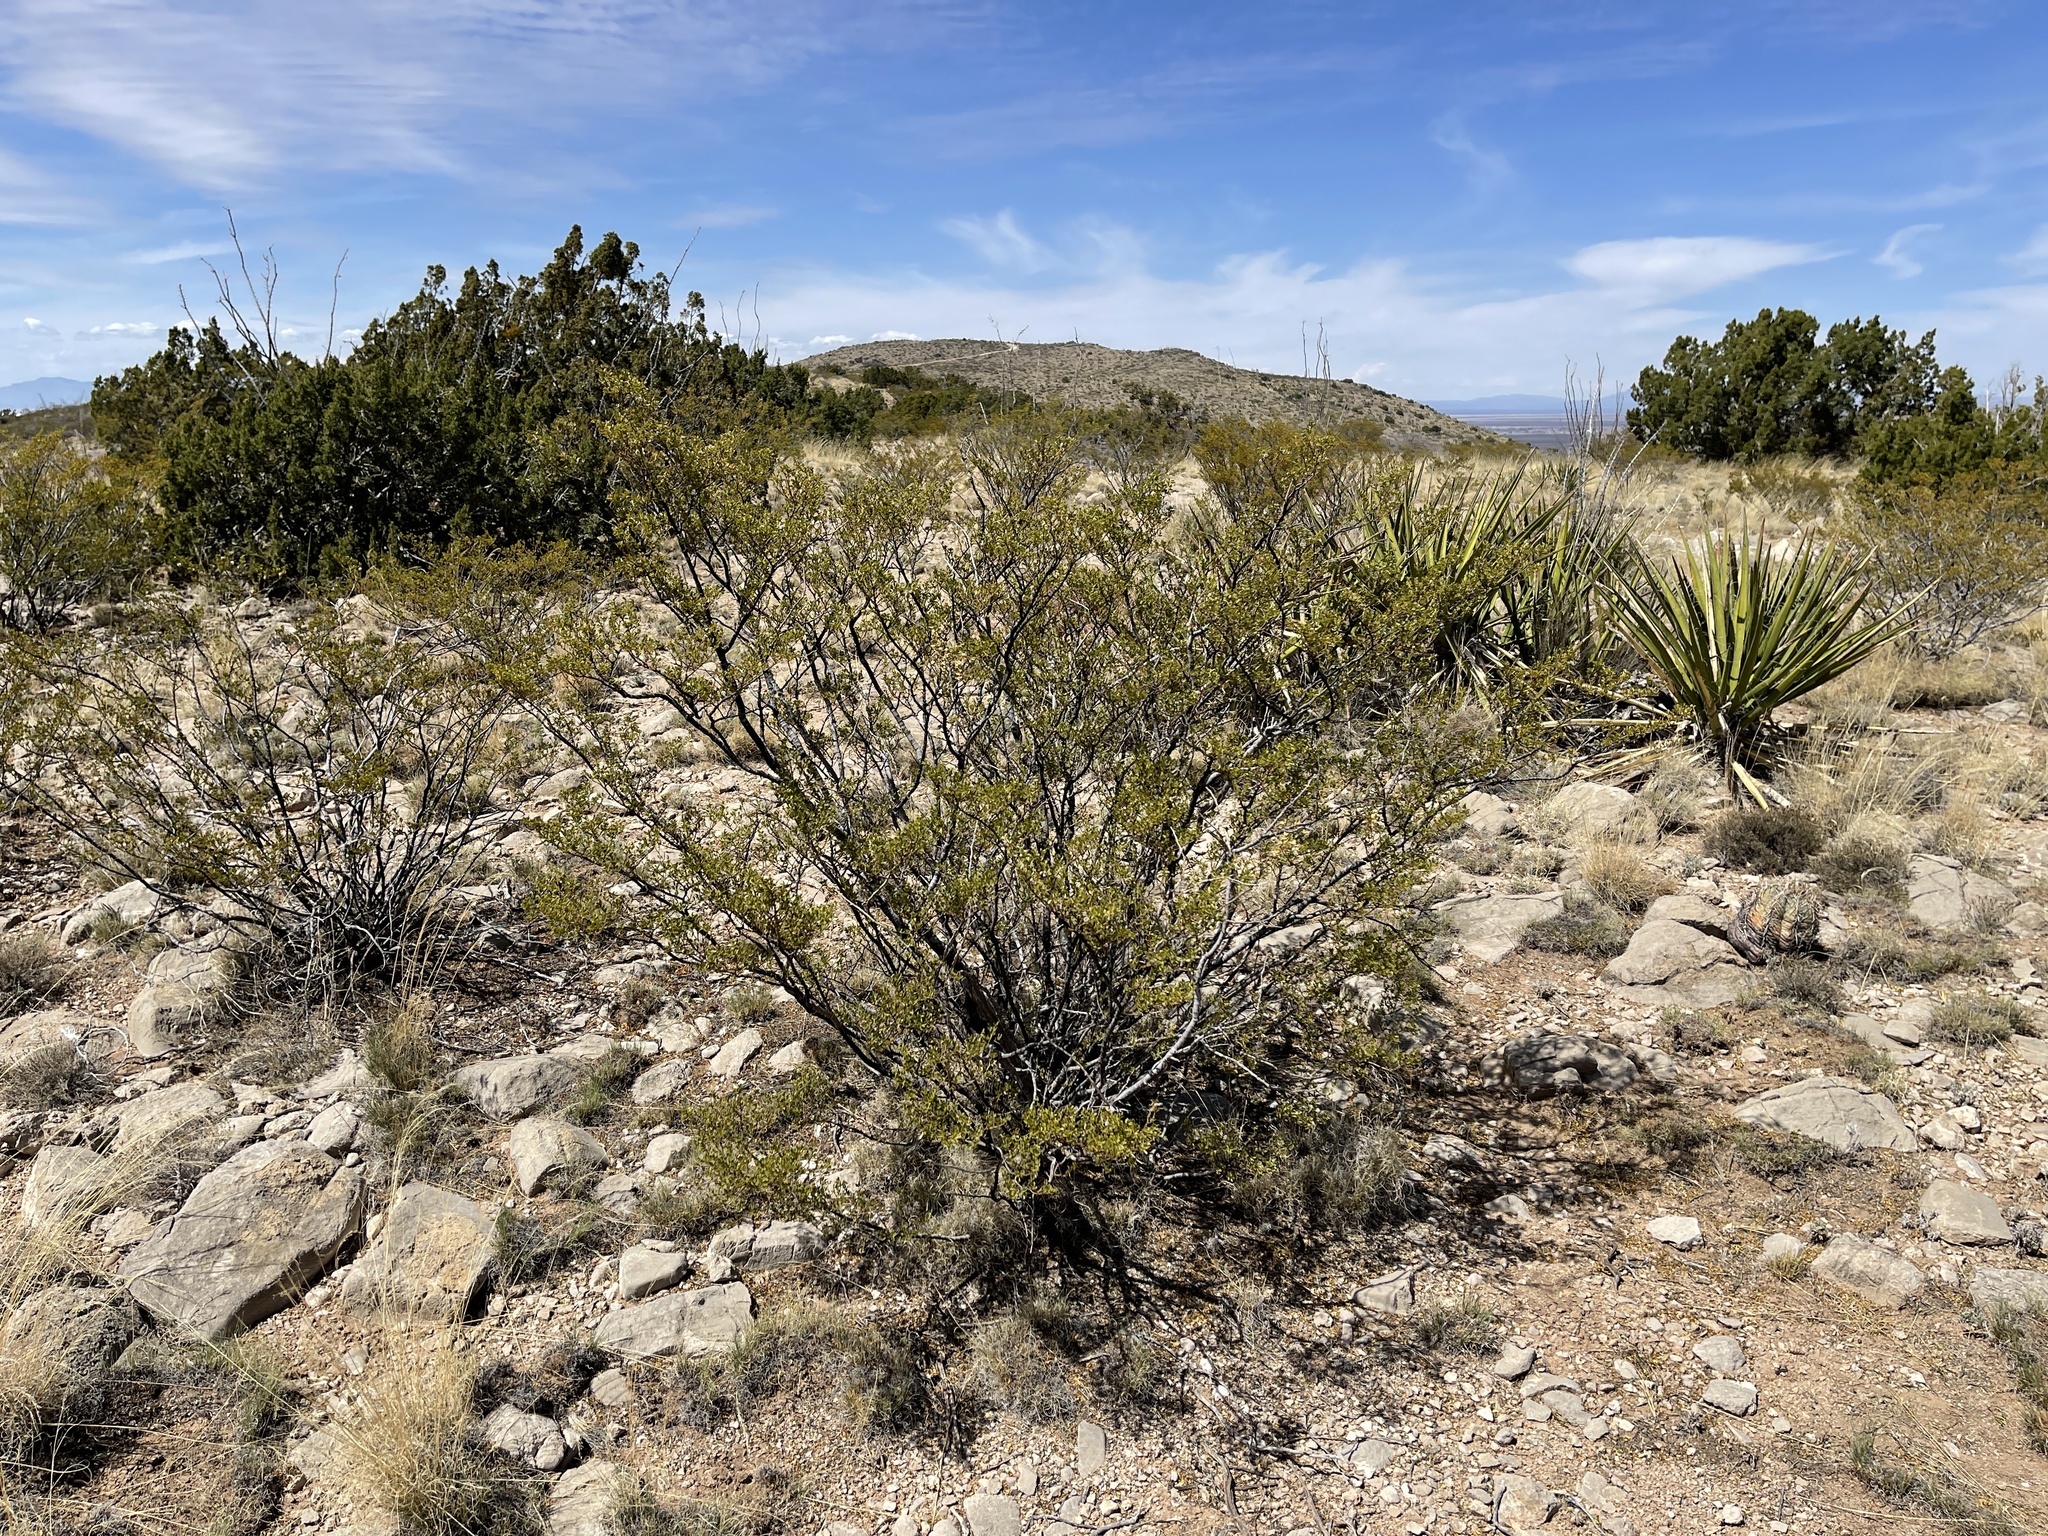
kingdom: Plantae
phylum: Tracheophyta
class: Magnoliopsida
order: Zygophyllales
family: Zygophyllaceae
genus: Larrea
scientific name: Larrea tridentata
